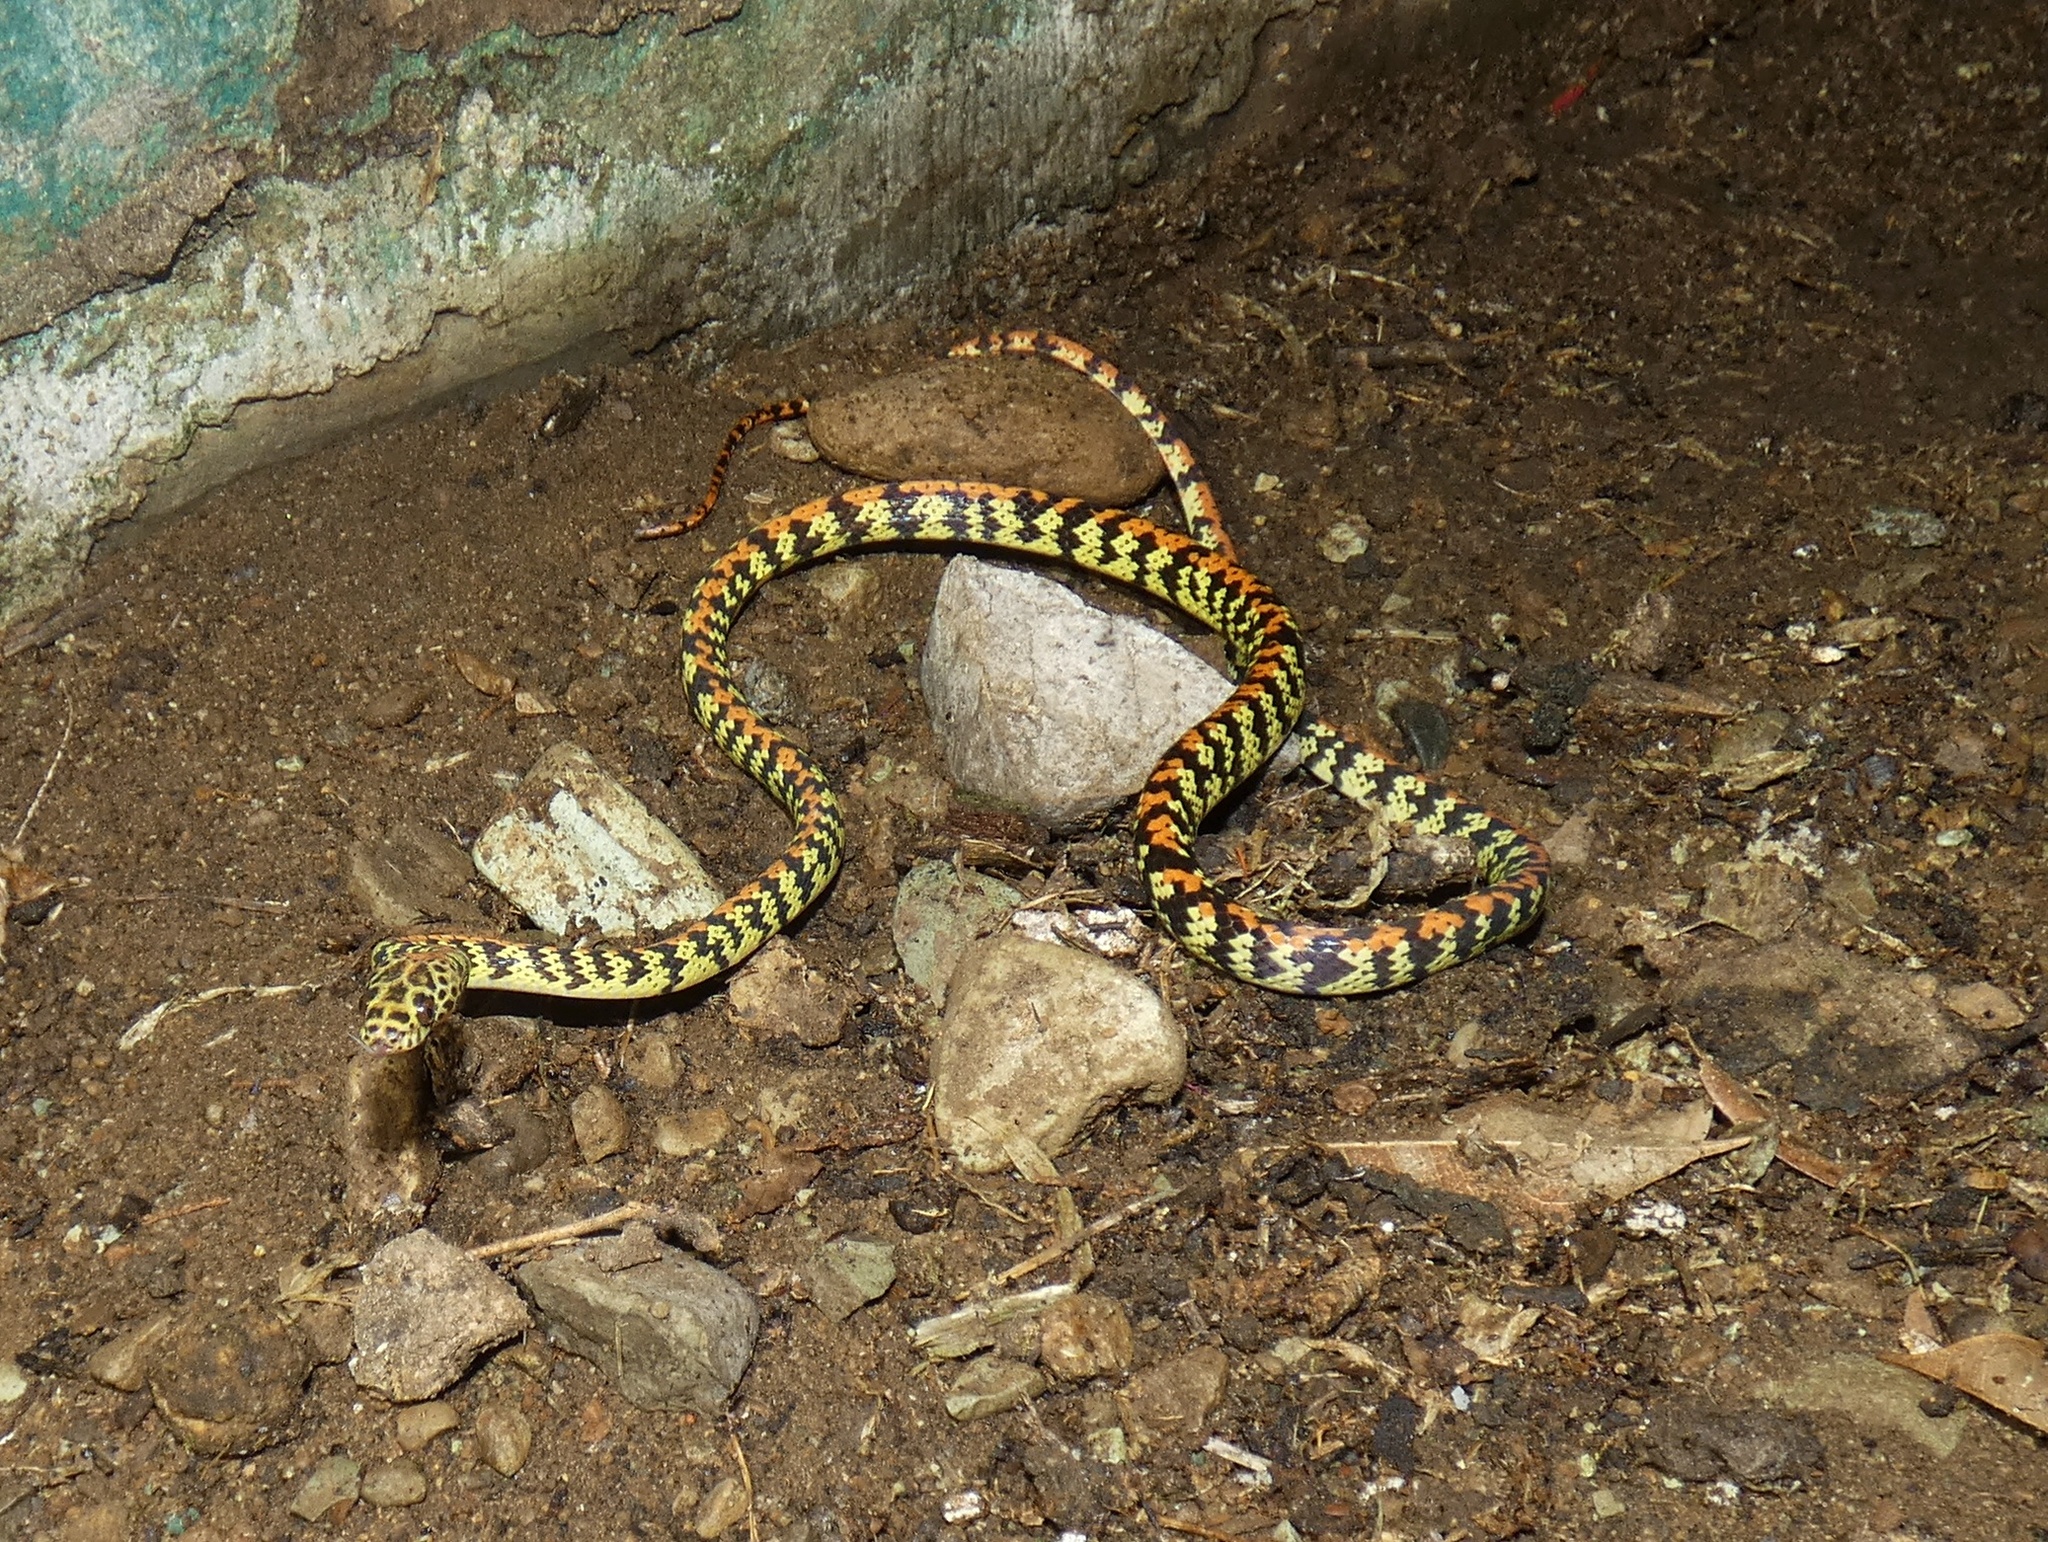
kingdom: Animalia
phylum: Chordata
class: Squamata
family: Colubridae
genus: Siphlophis
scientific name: Siphlophis cervinus
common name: Panama spotted night snake
